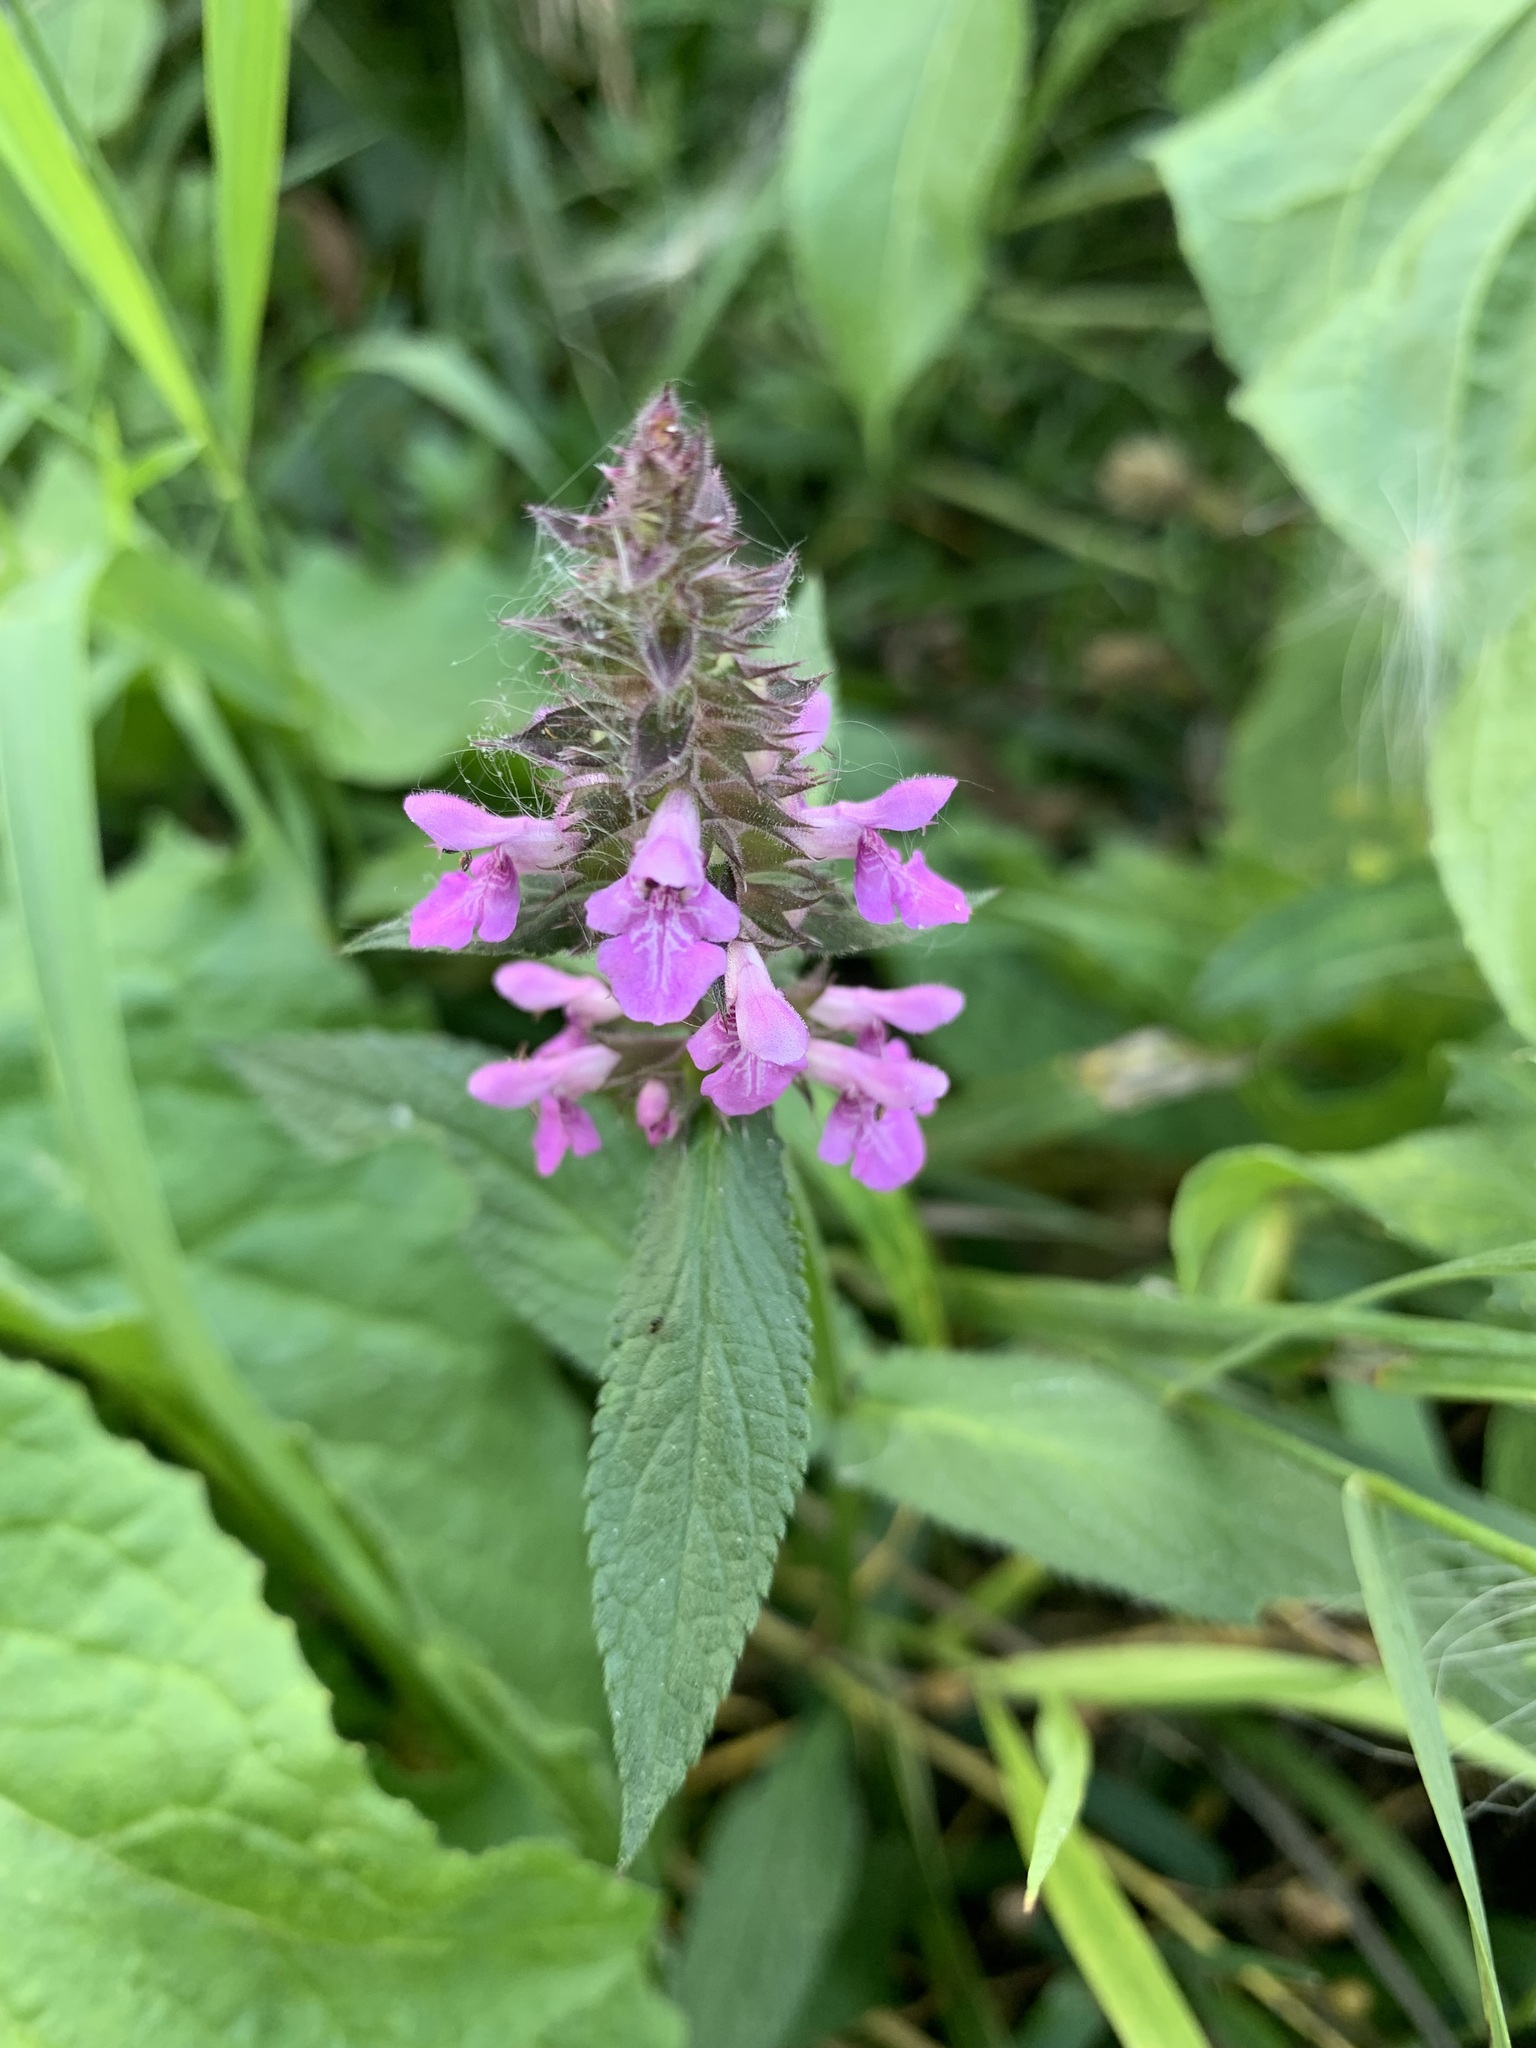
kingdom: Plantae
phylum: Tracheophyta
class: Magnoliopsida
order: Lamiales
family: Lamiaceae
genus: Stachys
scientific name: Stachys palustris
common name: Marsh woundwort
